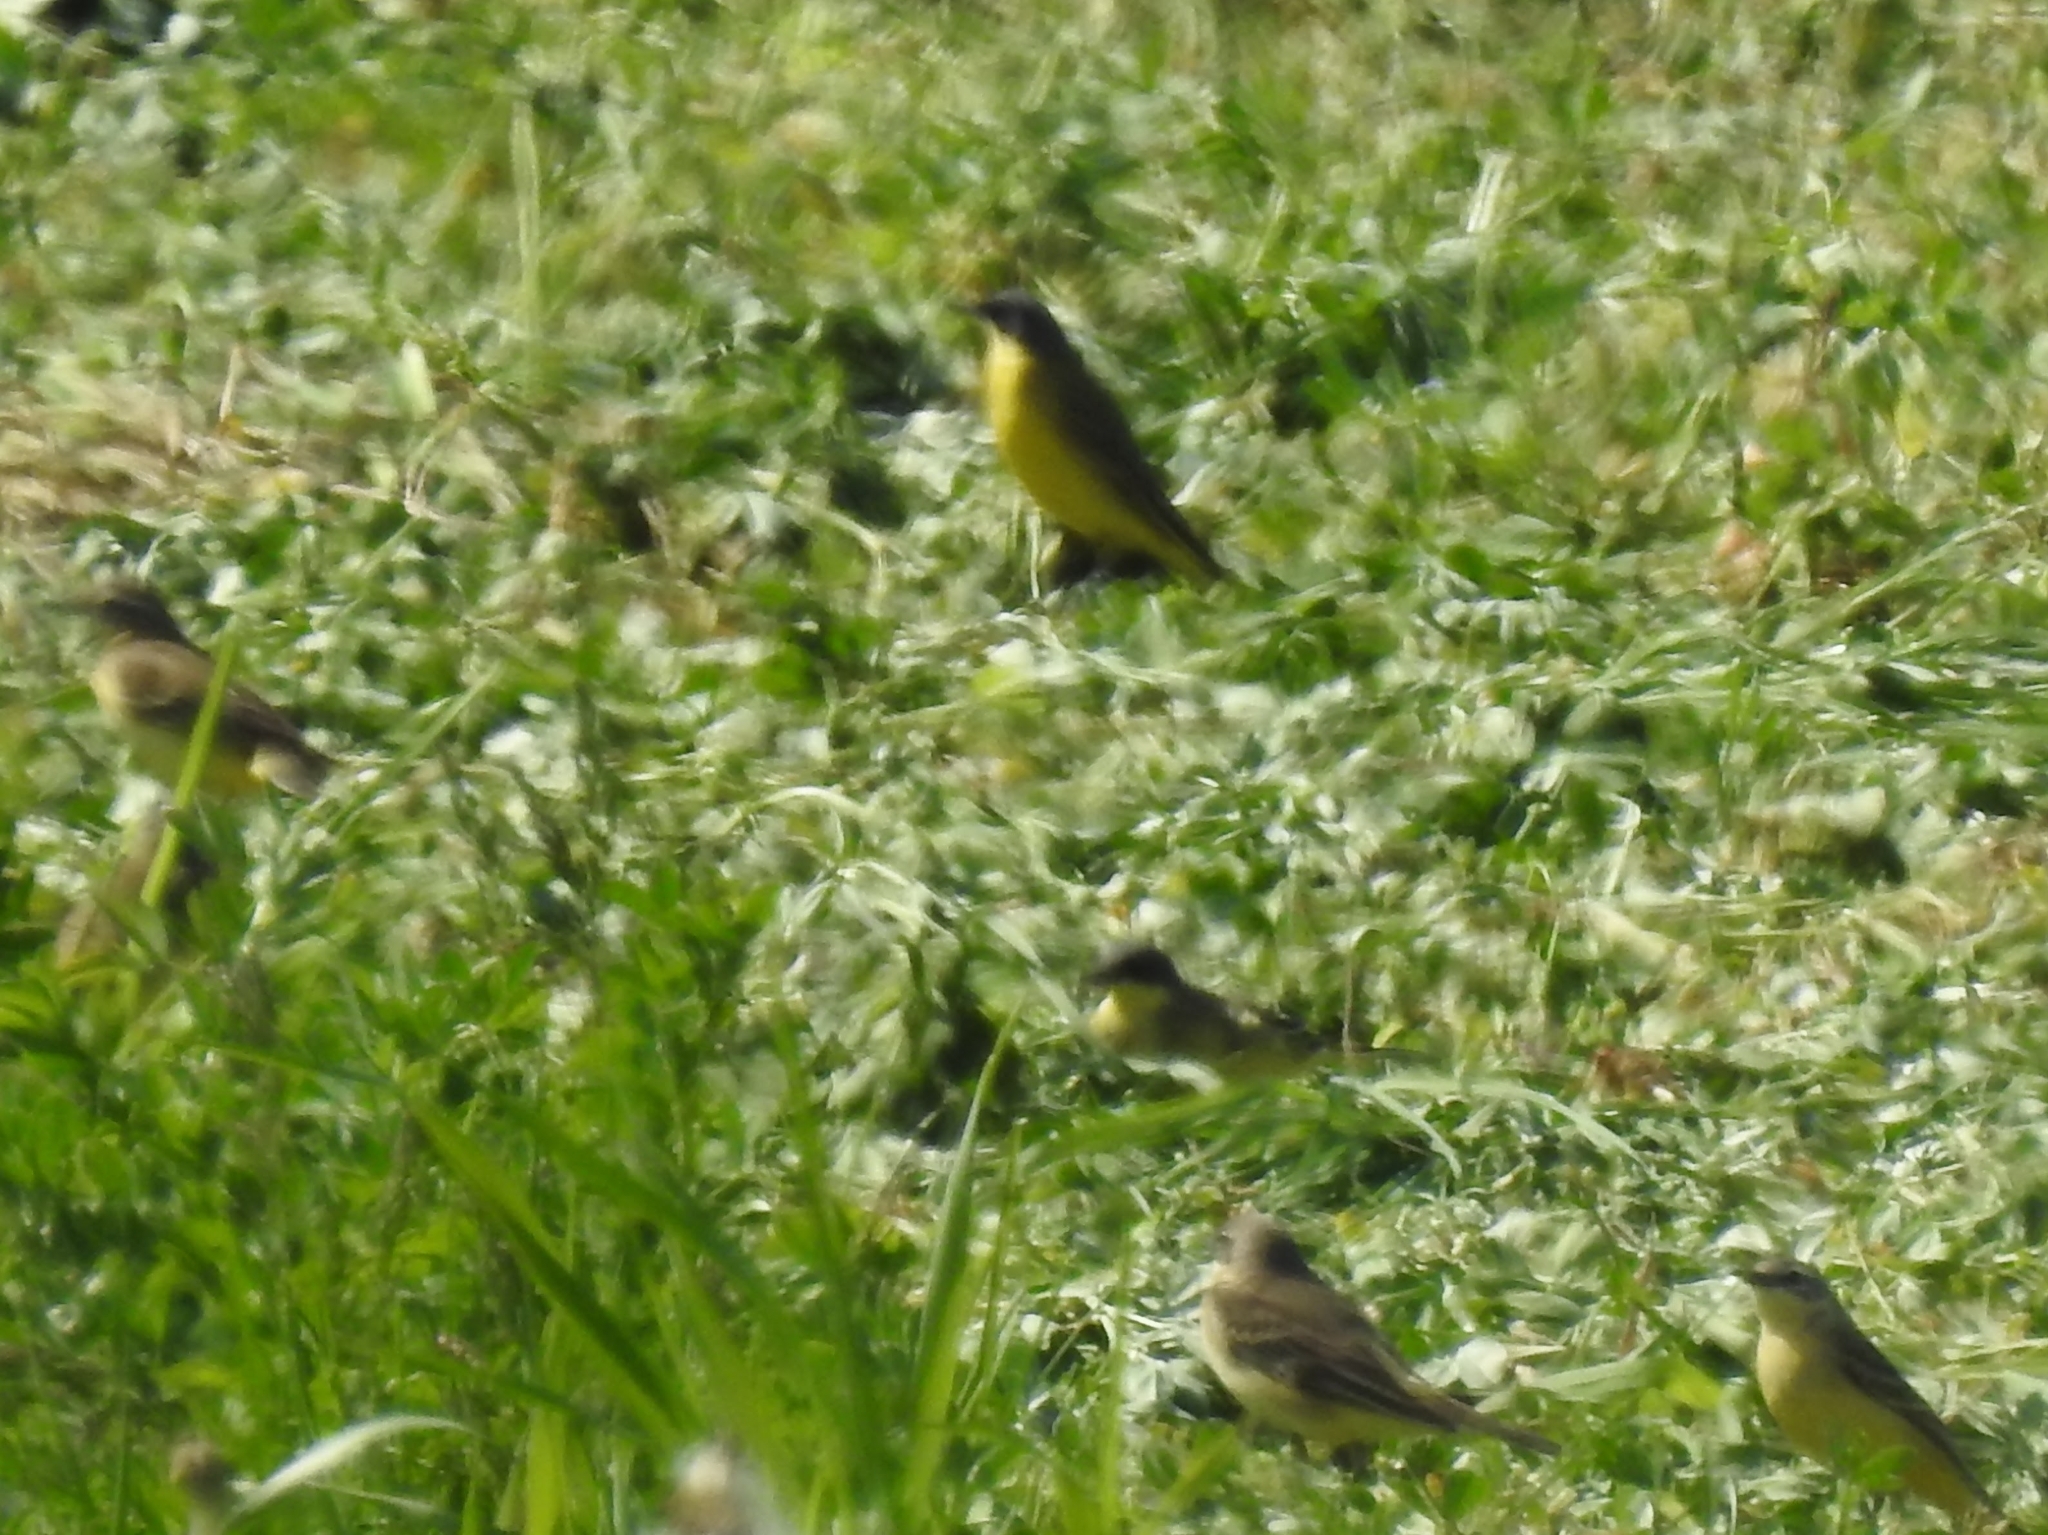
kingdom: Animalia
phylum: Chordata
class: Aves
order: Passeriformes
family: Motacillidae
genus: Motacilla
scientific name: Motacilla flava
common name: Western yellow wagtail
